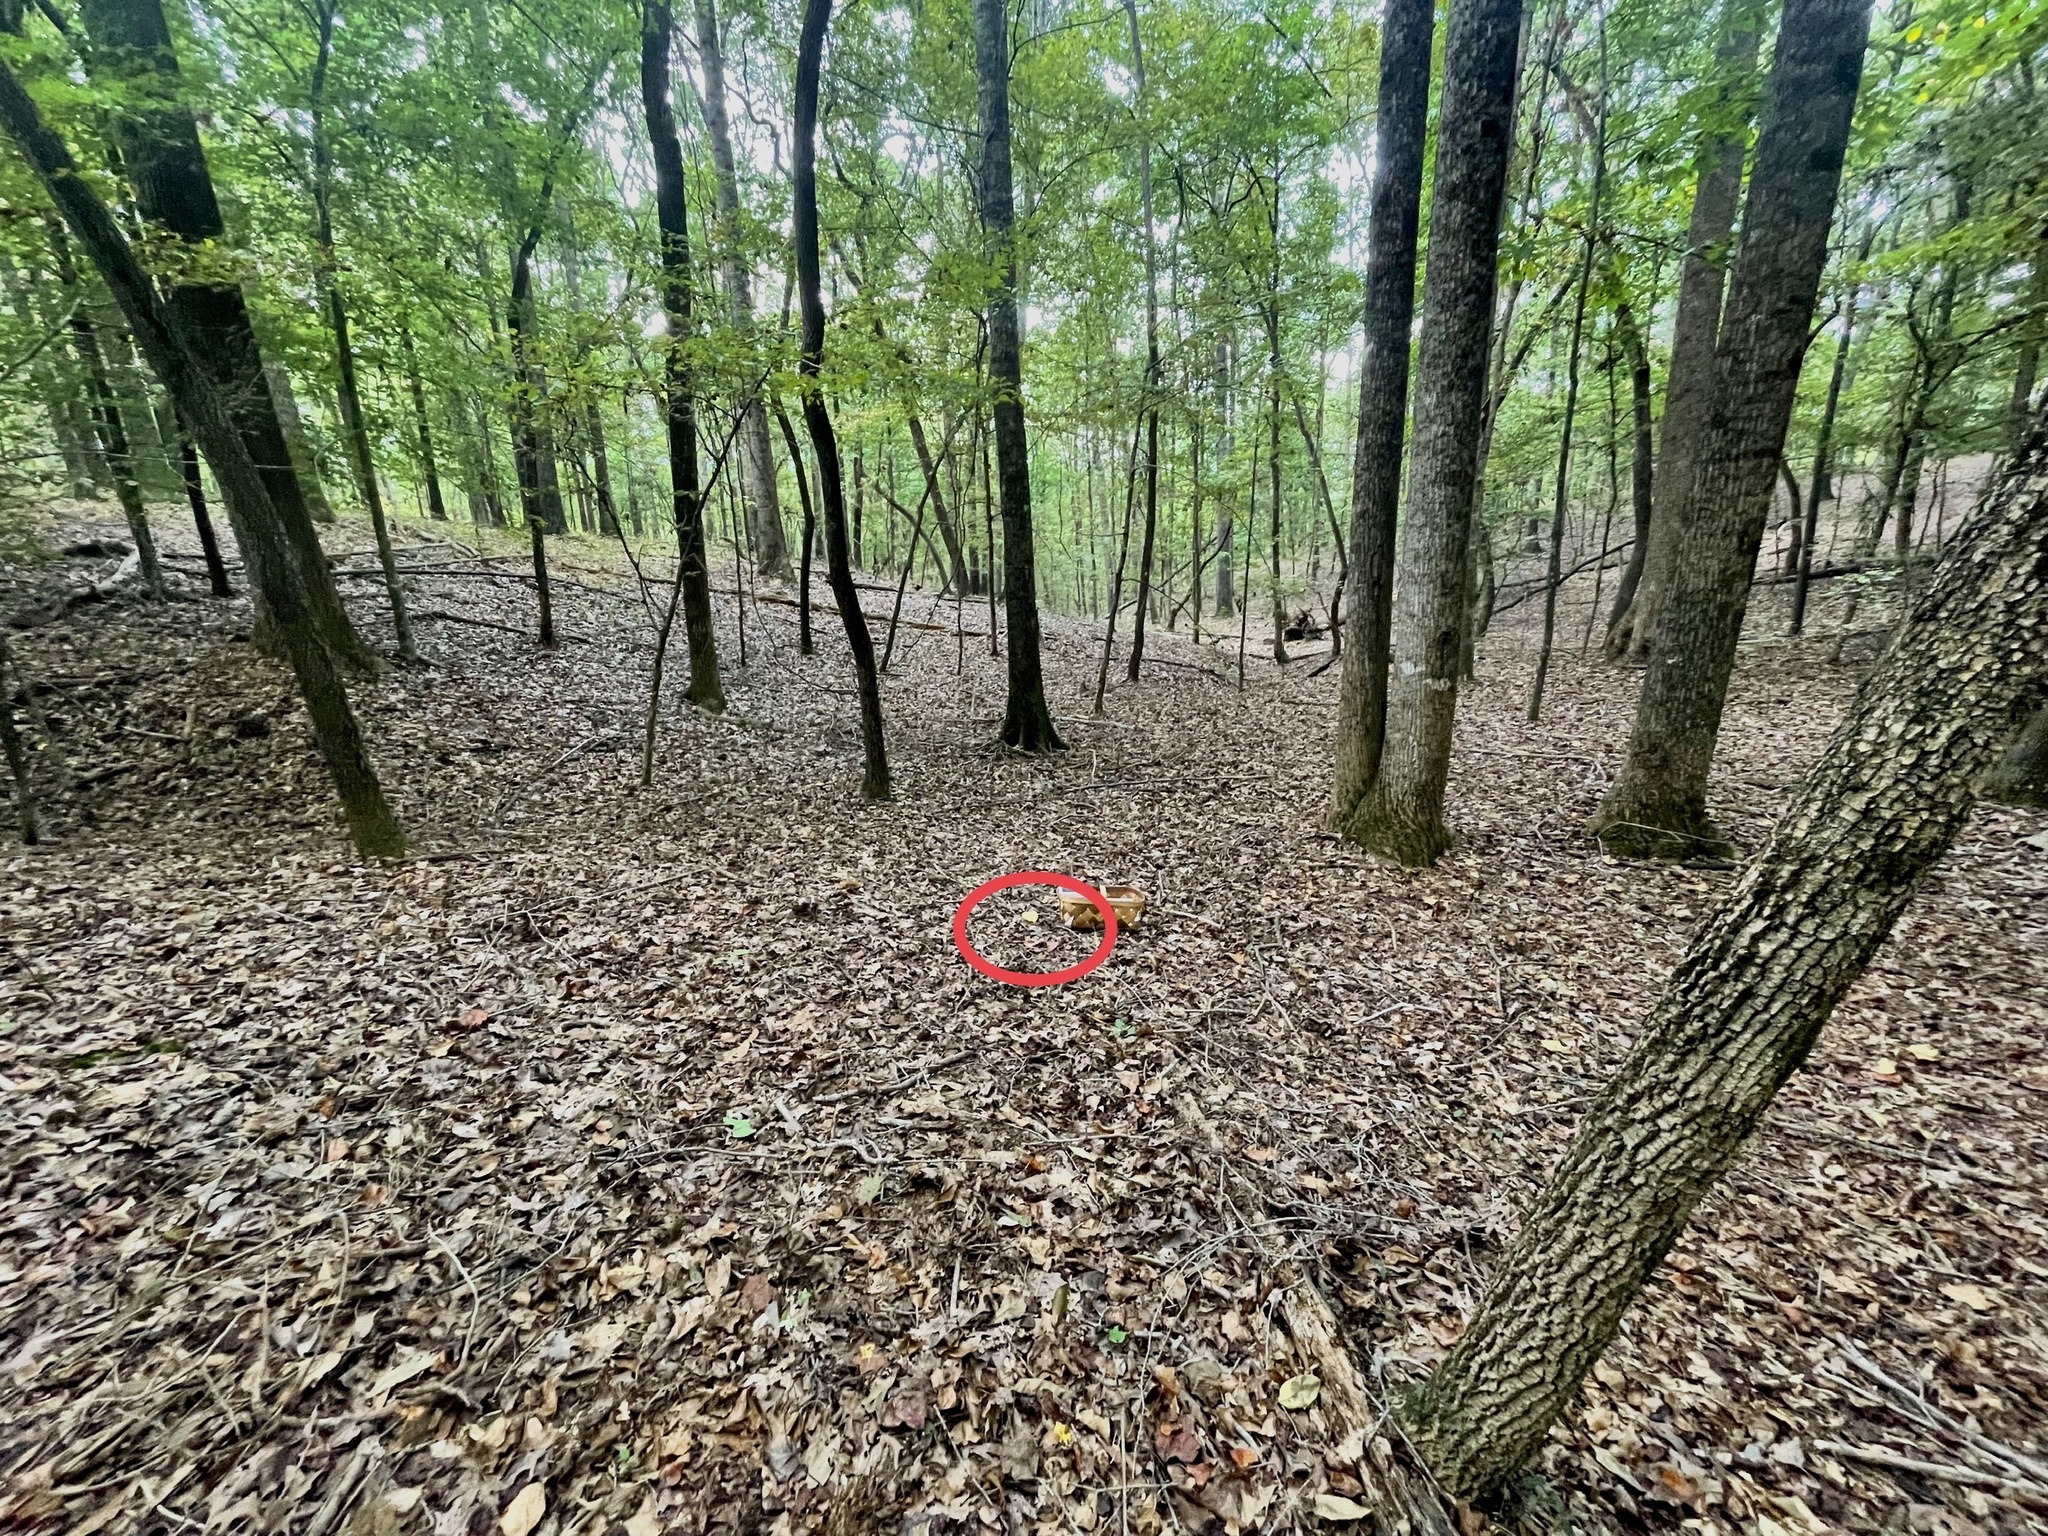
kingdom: Fungi
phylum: Basidiomycota
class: Agaricomycetes
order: Russulales
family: Russulaceae
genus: Lactarius
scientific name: Lactarius croceus
